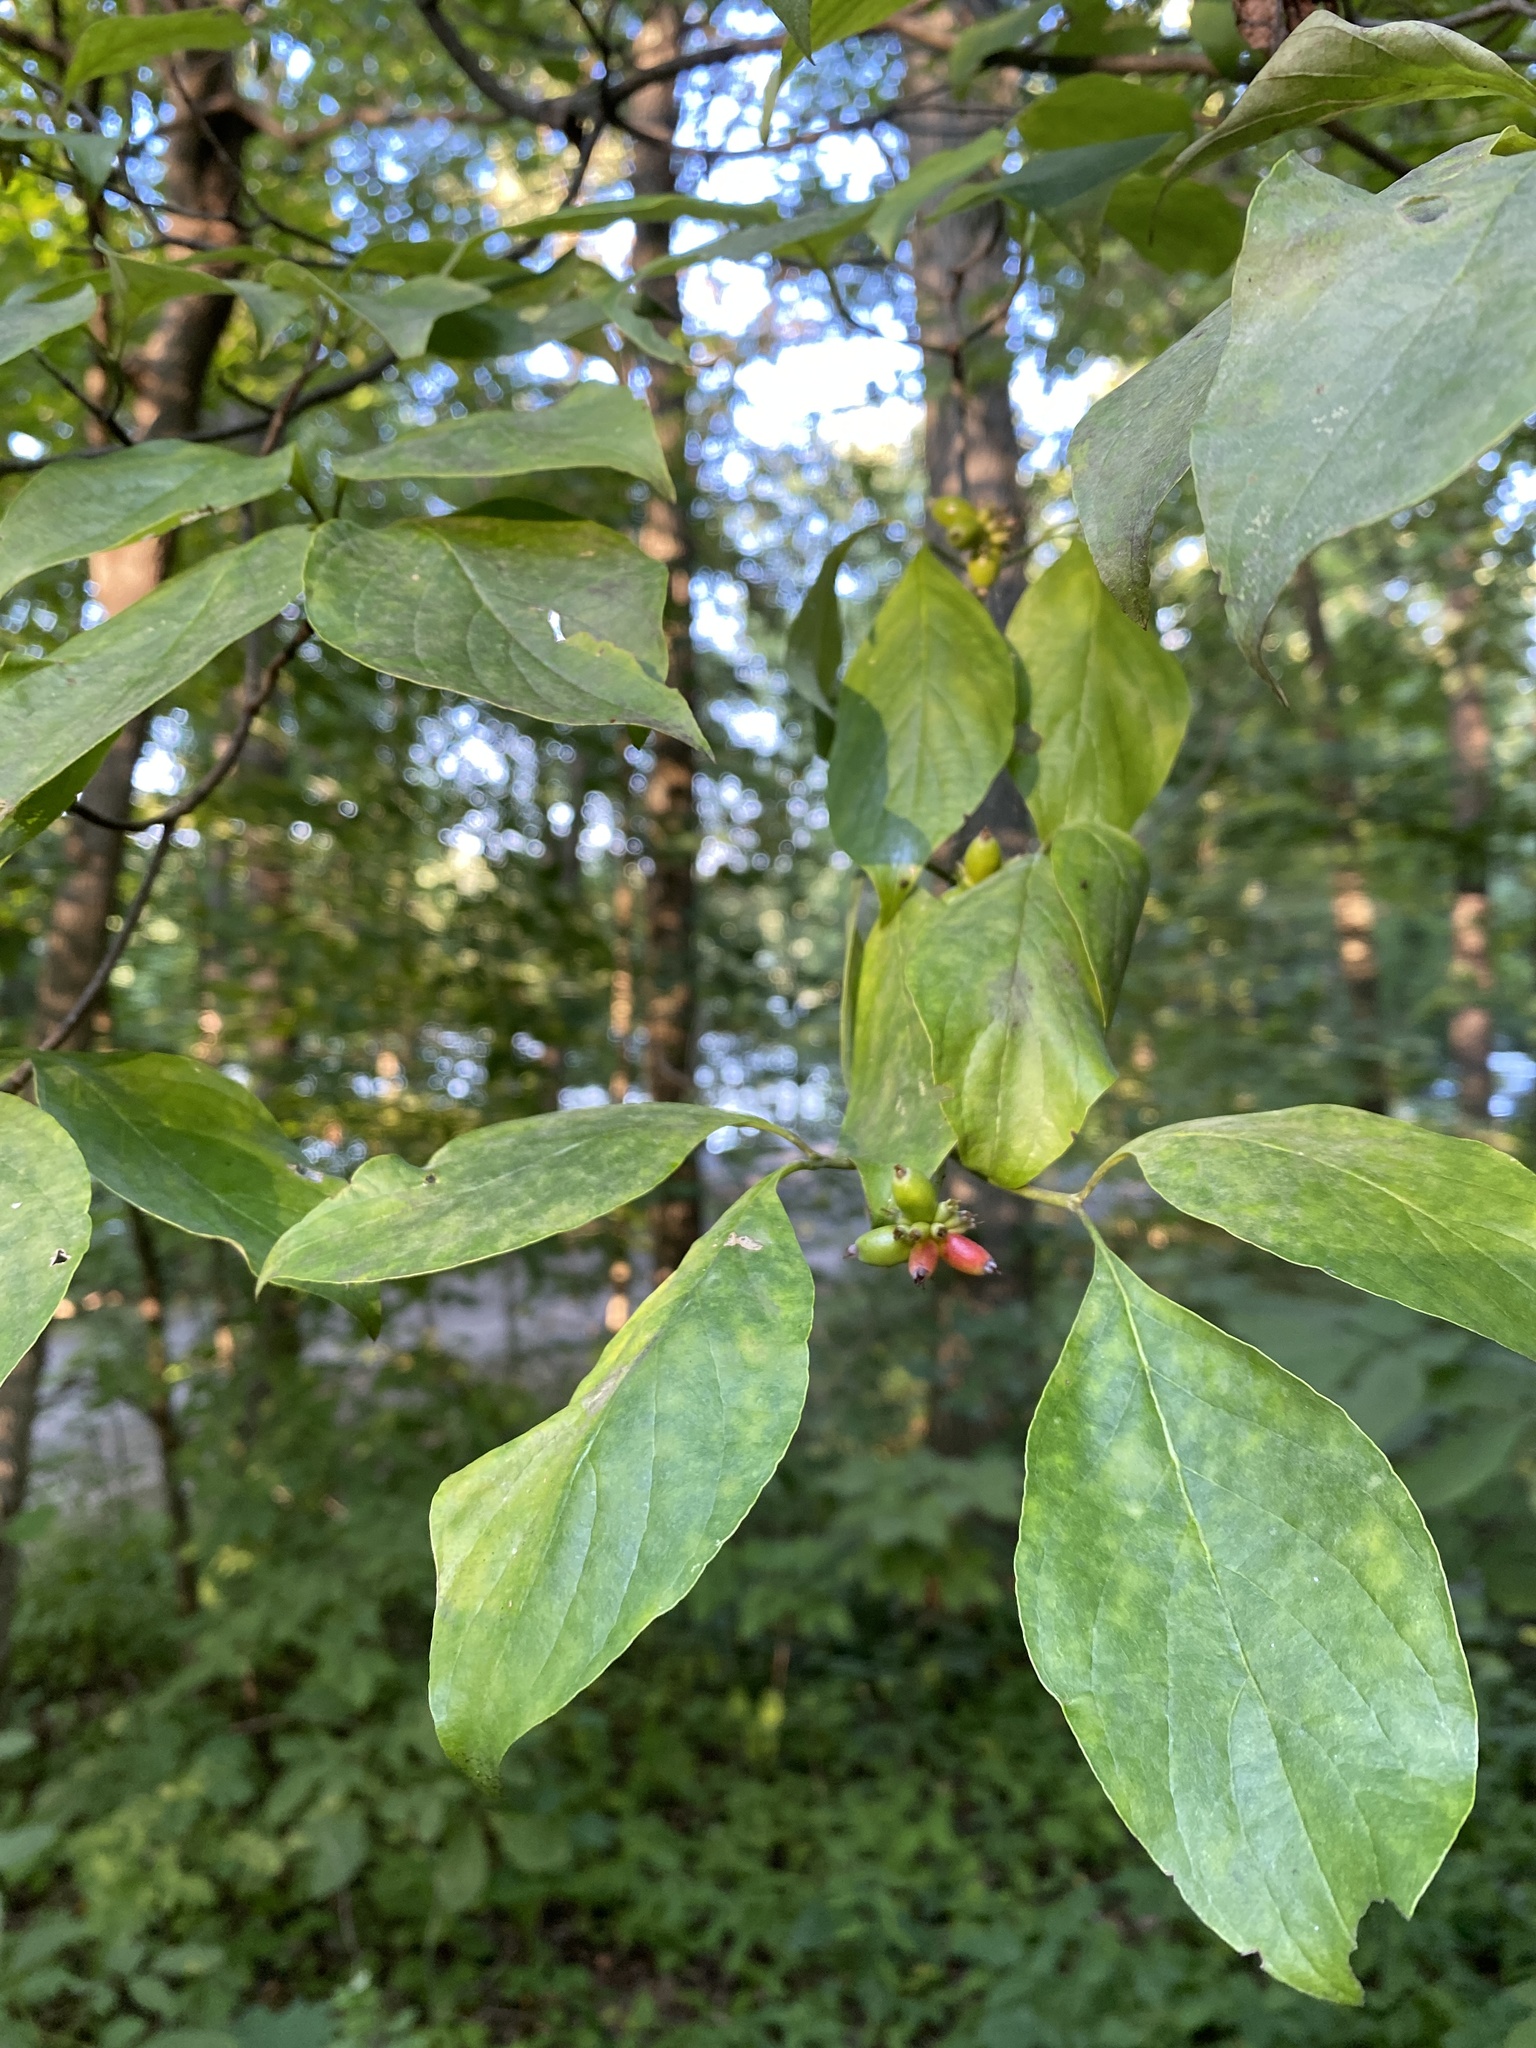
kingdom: Plantae
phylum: Tracheophyta
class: Magnoliopsida
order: Cornales
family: Cornaceae
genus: Cornus
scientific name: Cornus florida
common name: Flowering dogwood
